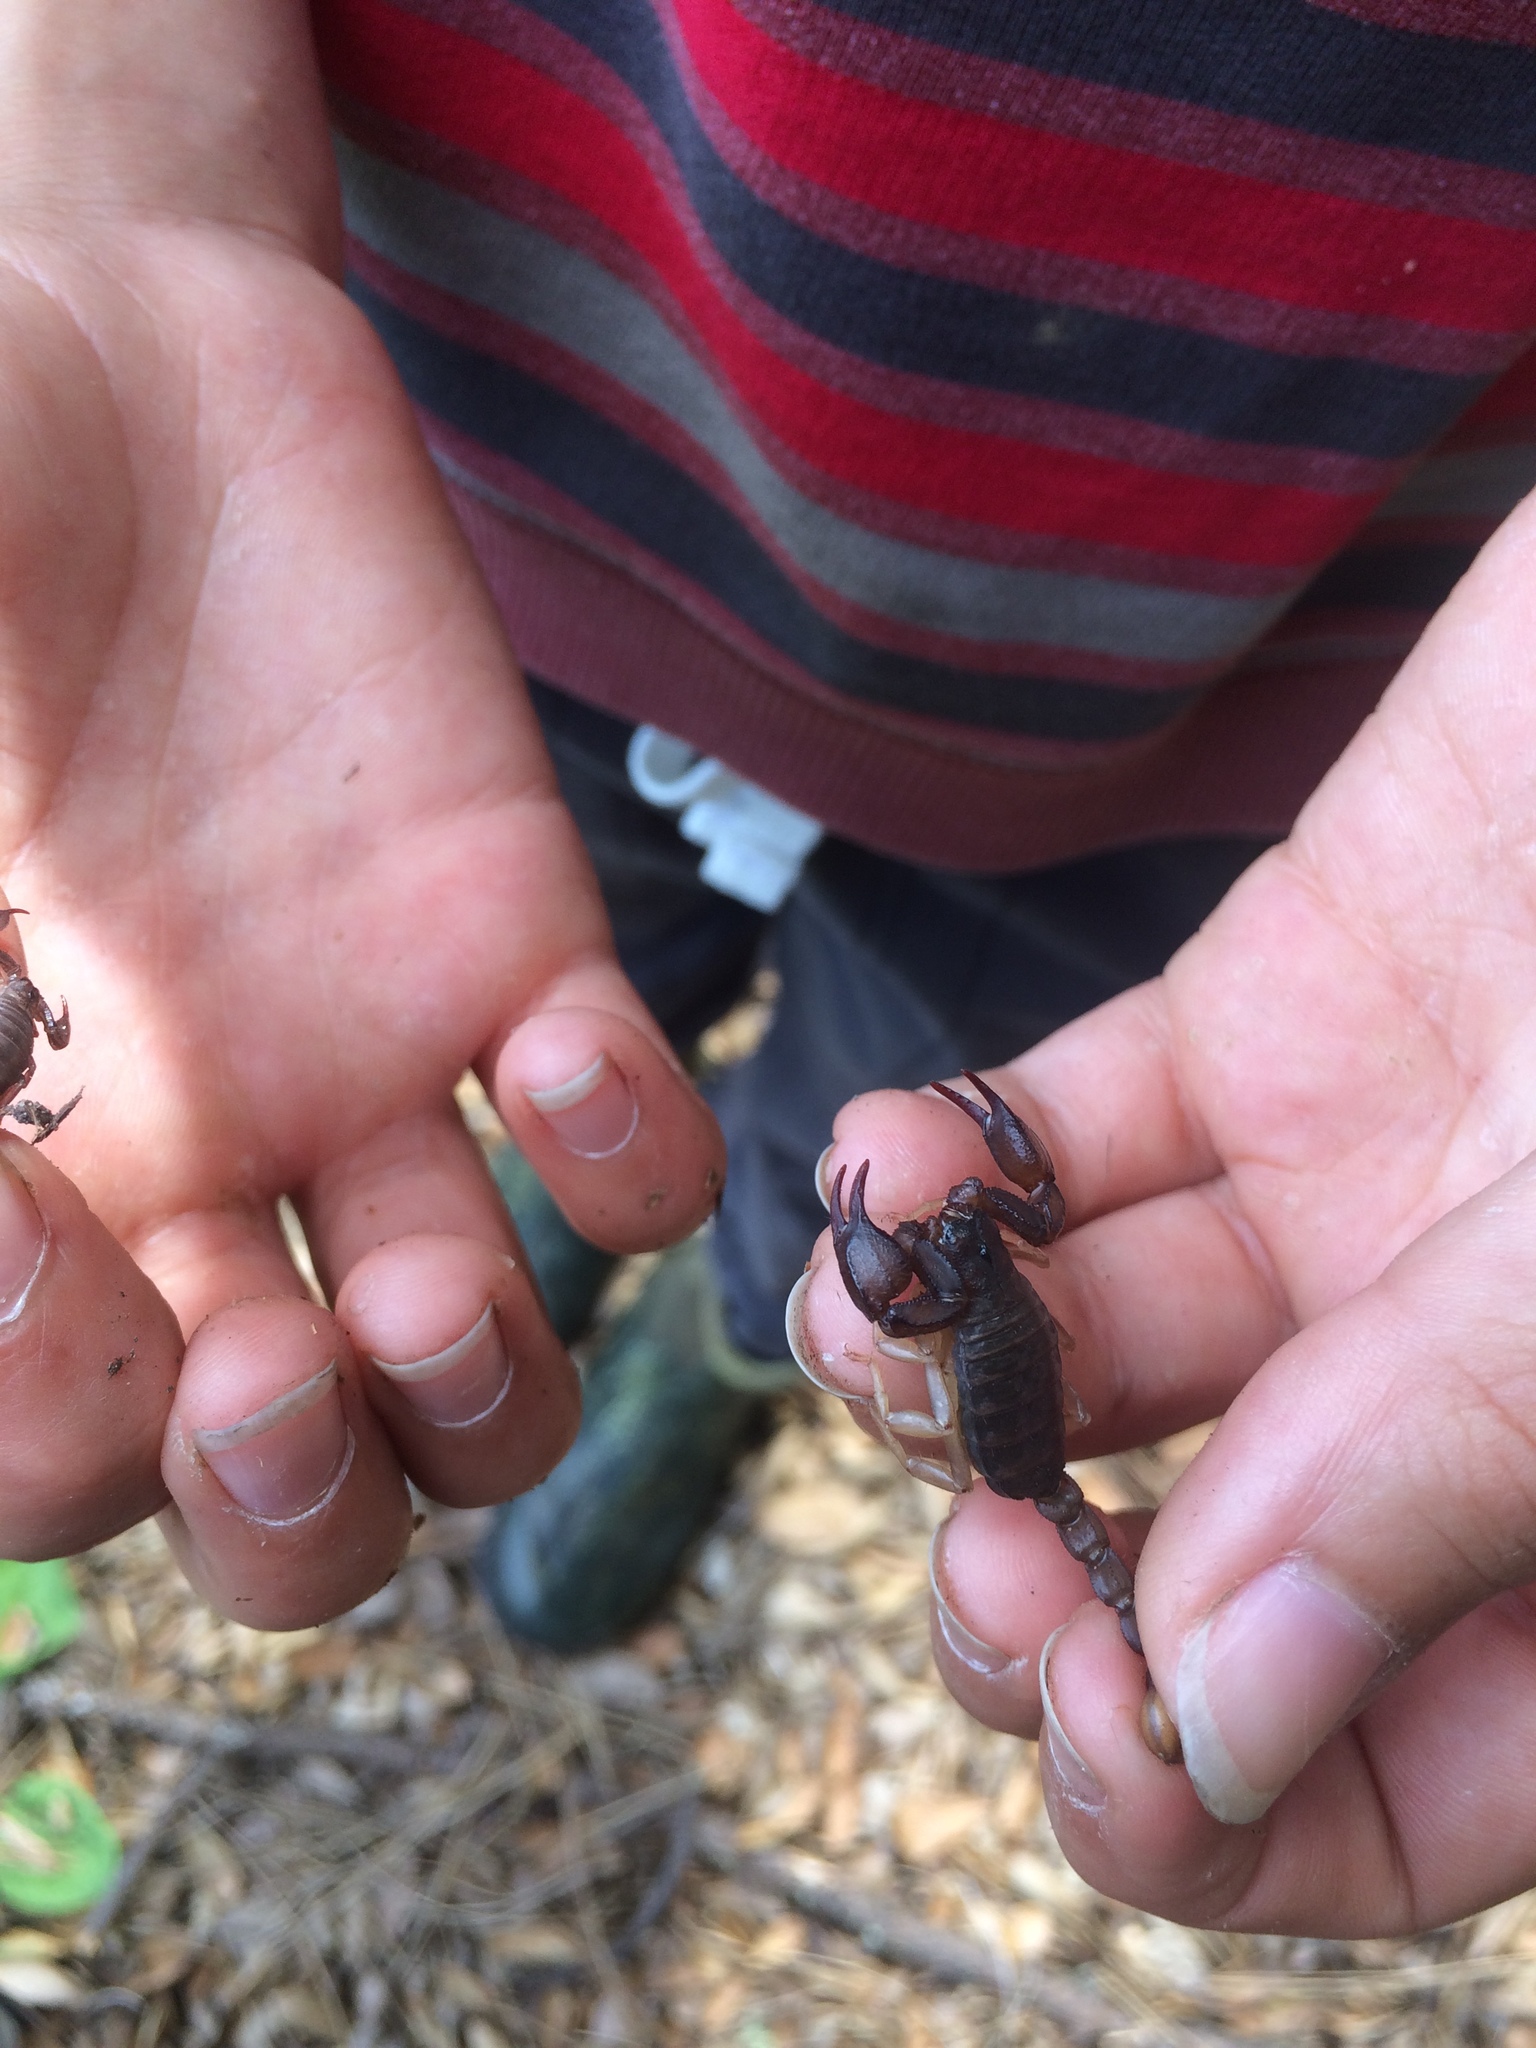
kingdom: Animalia
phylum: Arthropoda
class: Arachnida
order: Scorpiones
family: Chactidae
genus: Uroctonus
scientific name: Uroctonus mordax
